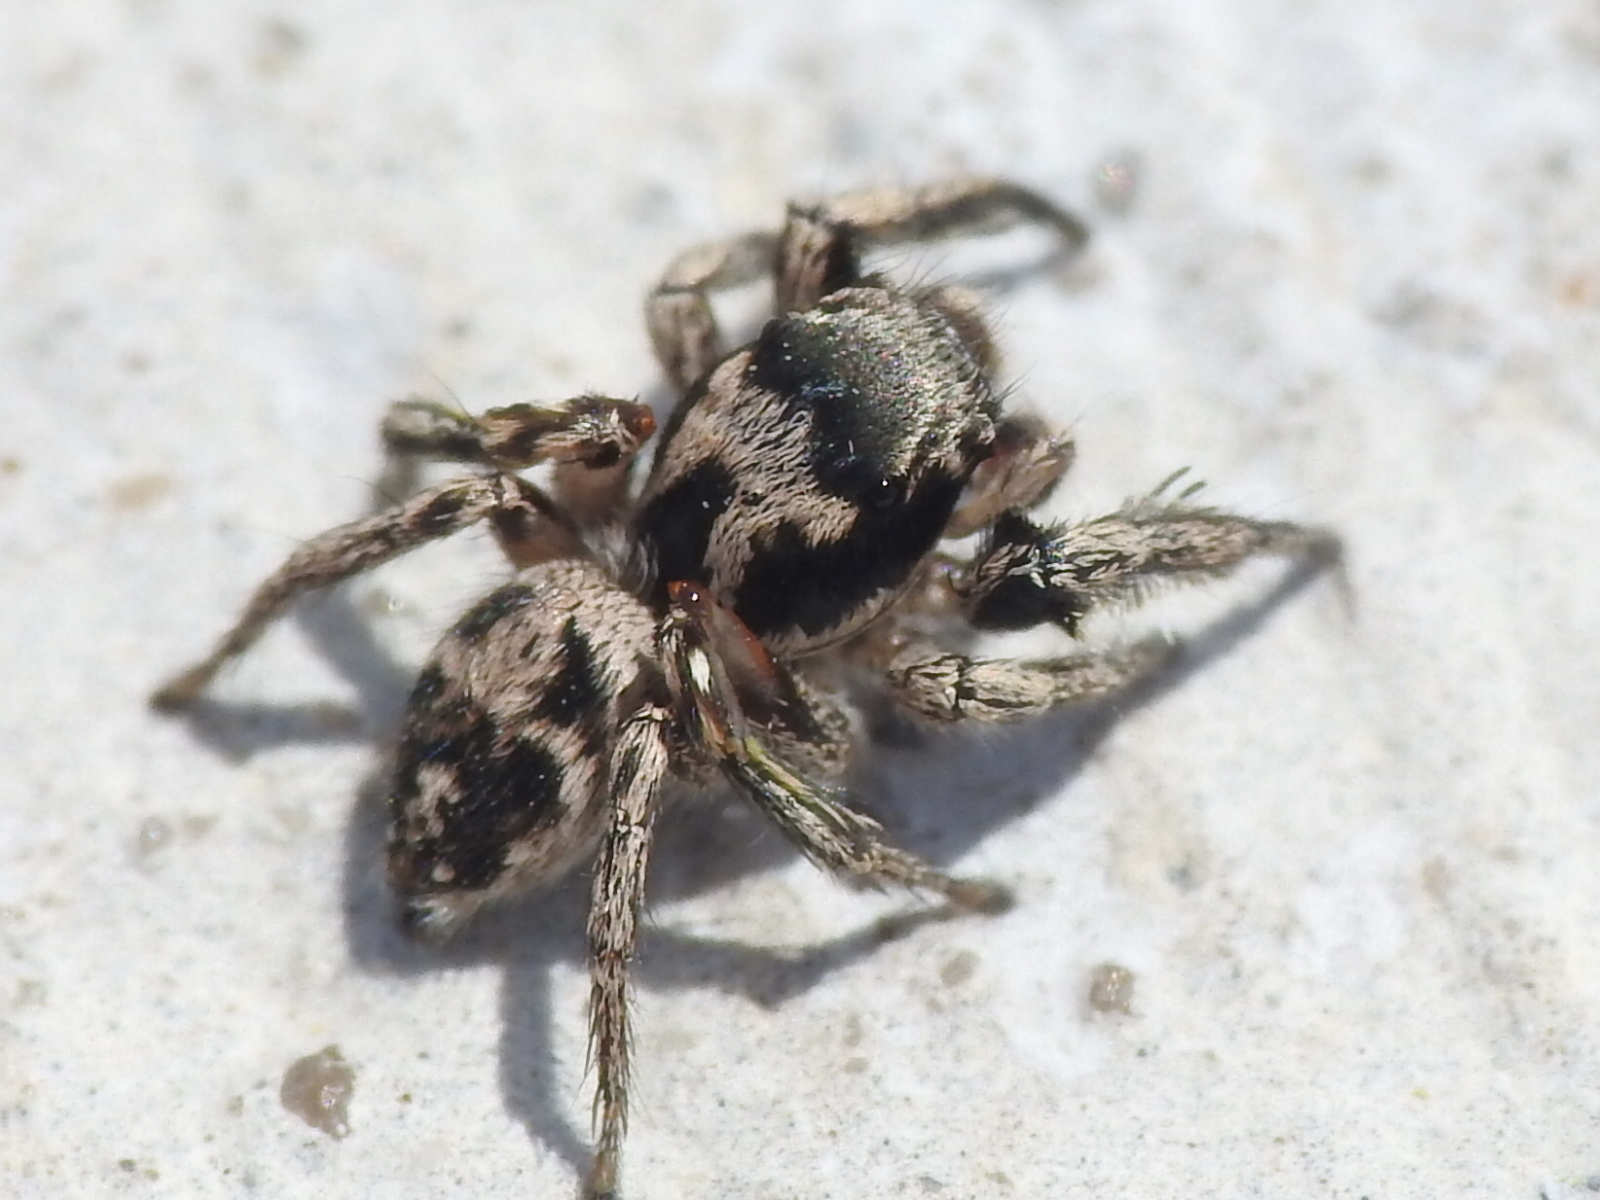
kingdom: Animalia
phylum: Arthropoda
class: Arachnida
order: Araneae
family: Salticidae
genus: Habronattus
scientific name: Habronattus coecatus
